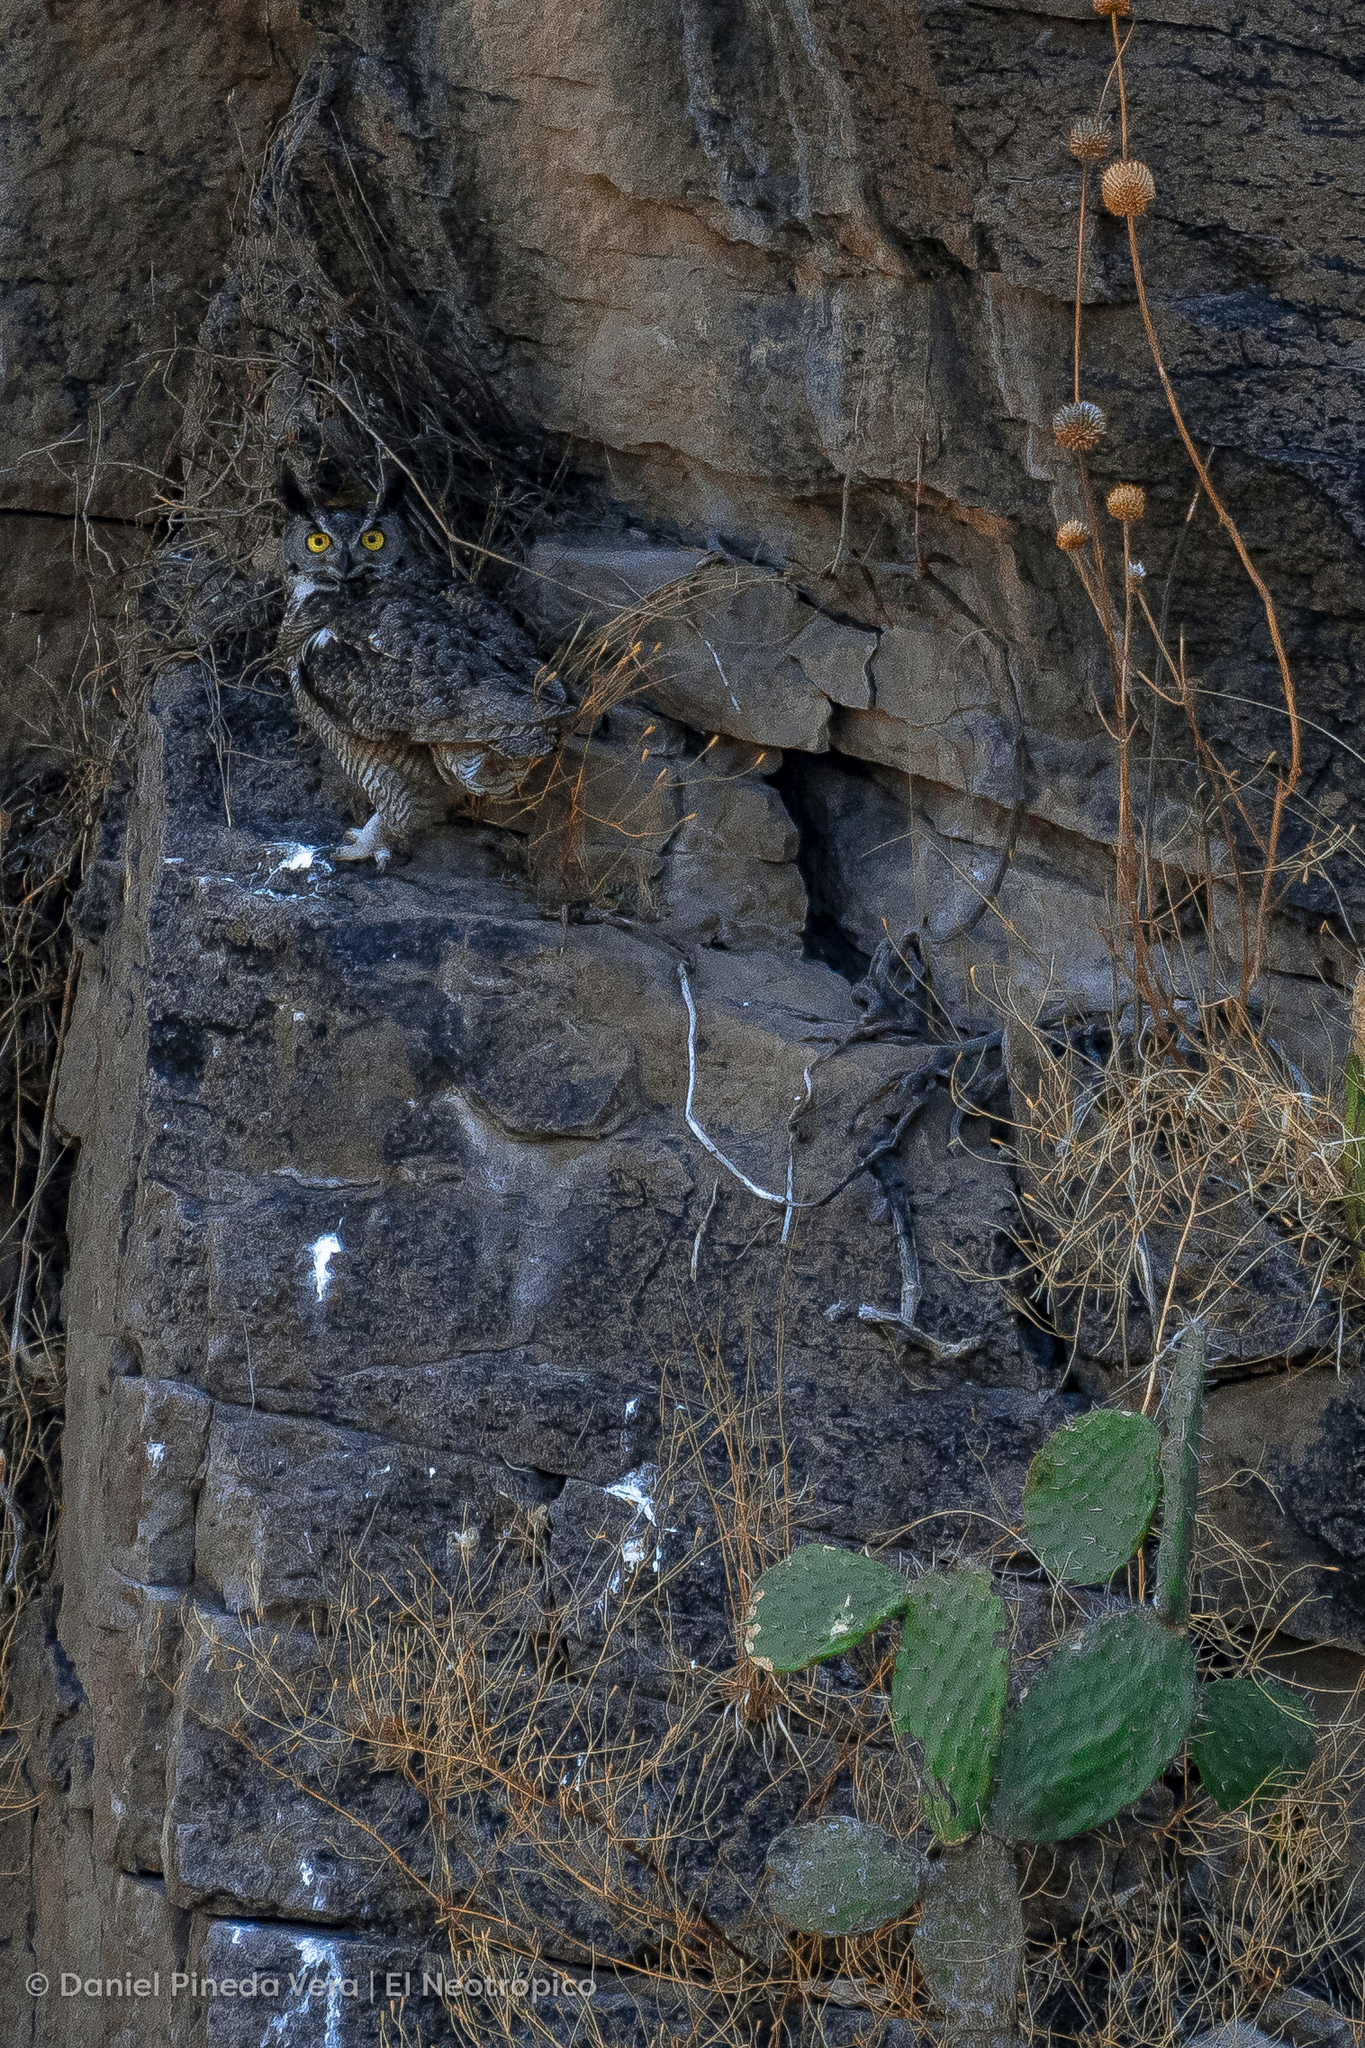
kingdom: Animalia
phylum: Chordata
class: Aves
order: Strigiformes
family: Strigidae
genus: Bubo
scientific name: Bubo virginianus
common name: Great horned owl
